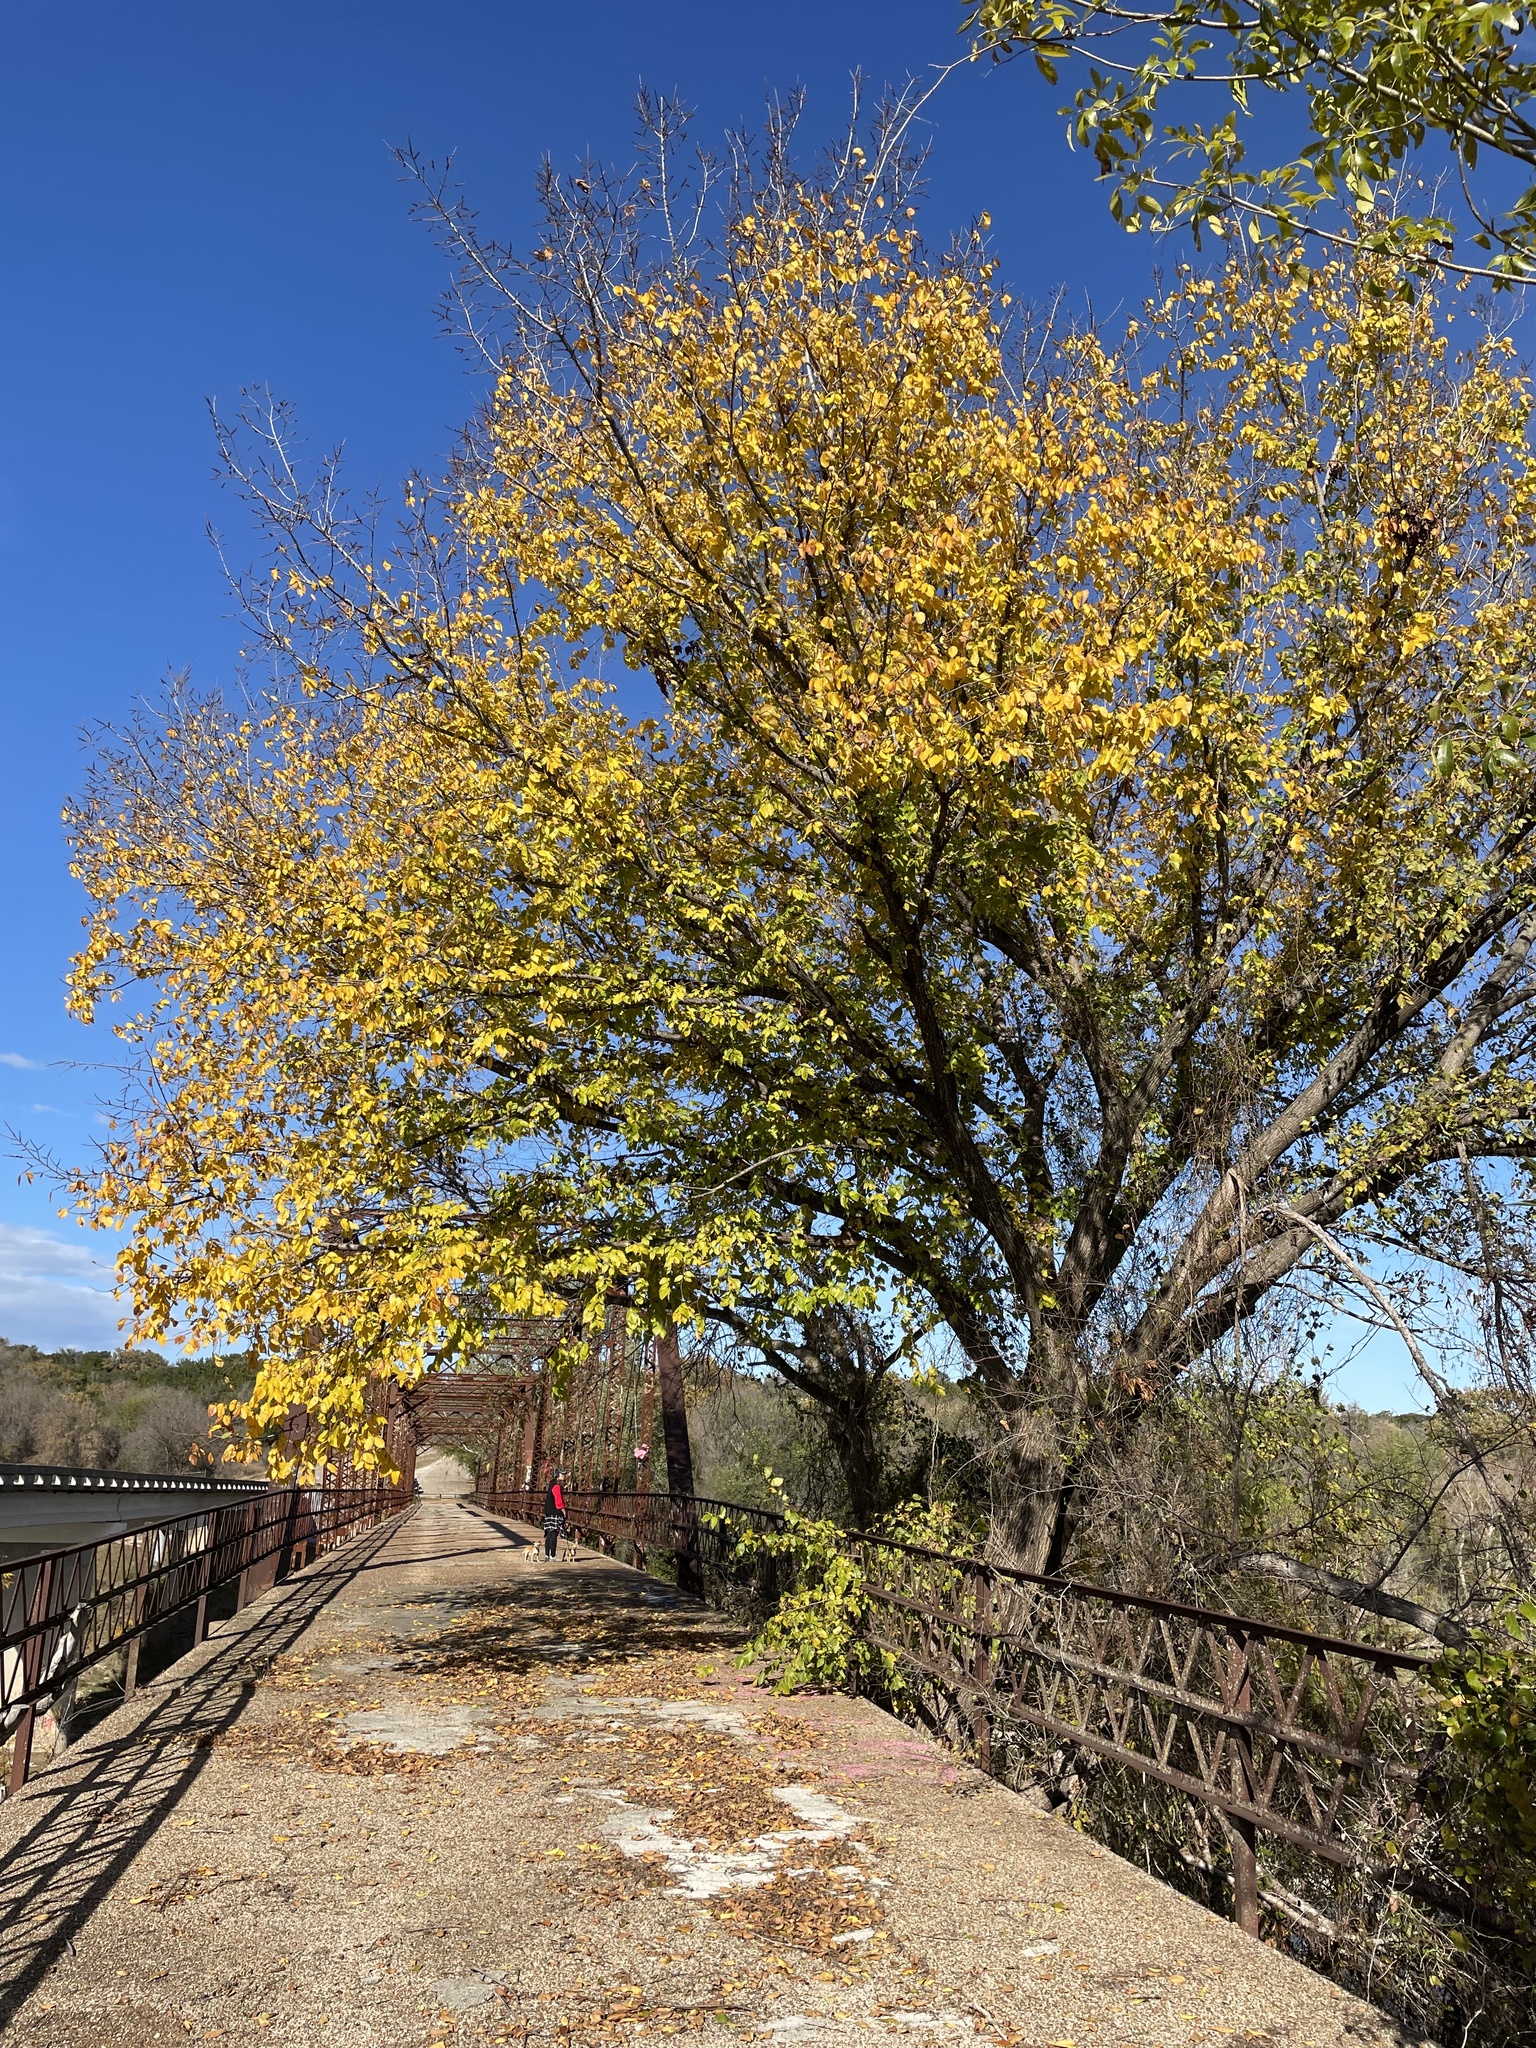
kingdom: Plantae
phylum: Tracheophyta
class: Magnoliopsida
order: Rosales
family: Ulmaceae
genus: Ulmus
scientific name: Ulmus americana
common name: American elm
